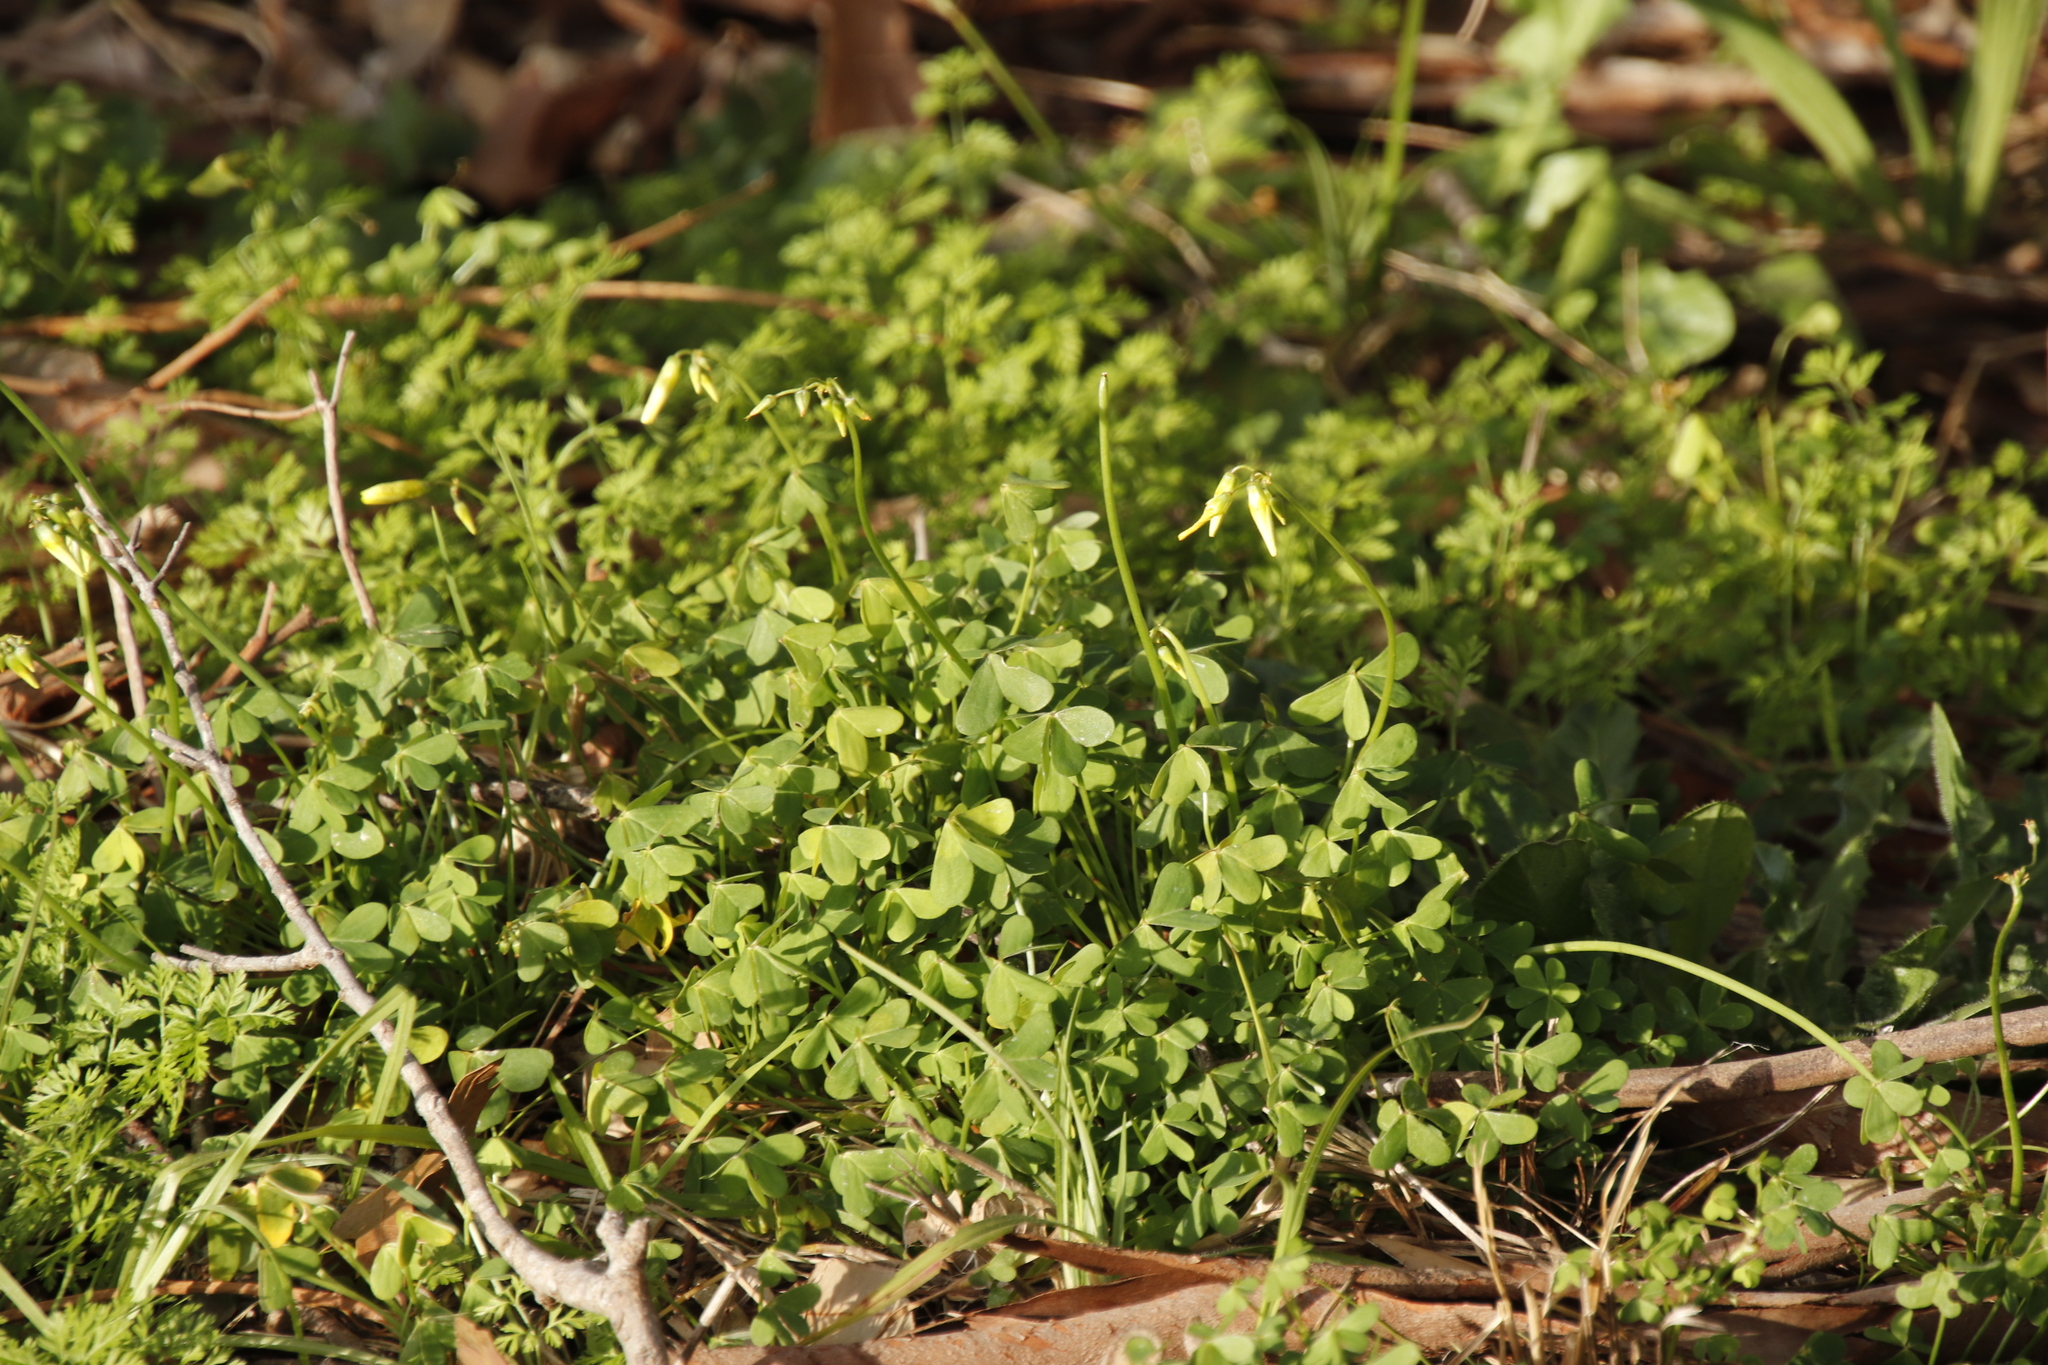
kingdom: Plantae
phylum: Tracheophyta
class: Magnoliopsida
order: Oxalidales
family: Oxalidaceae
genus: Oxalis
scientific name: Oxalis pes-caprae
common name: Bermuda-buttercup
